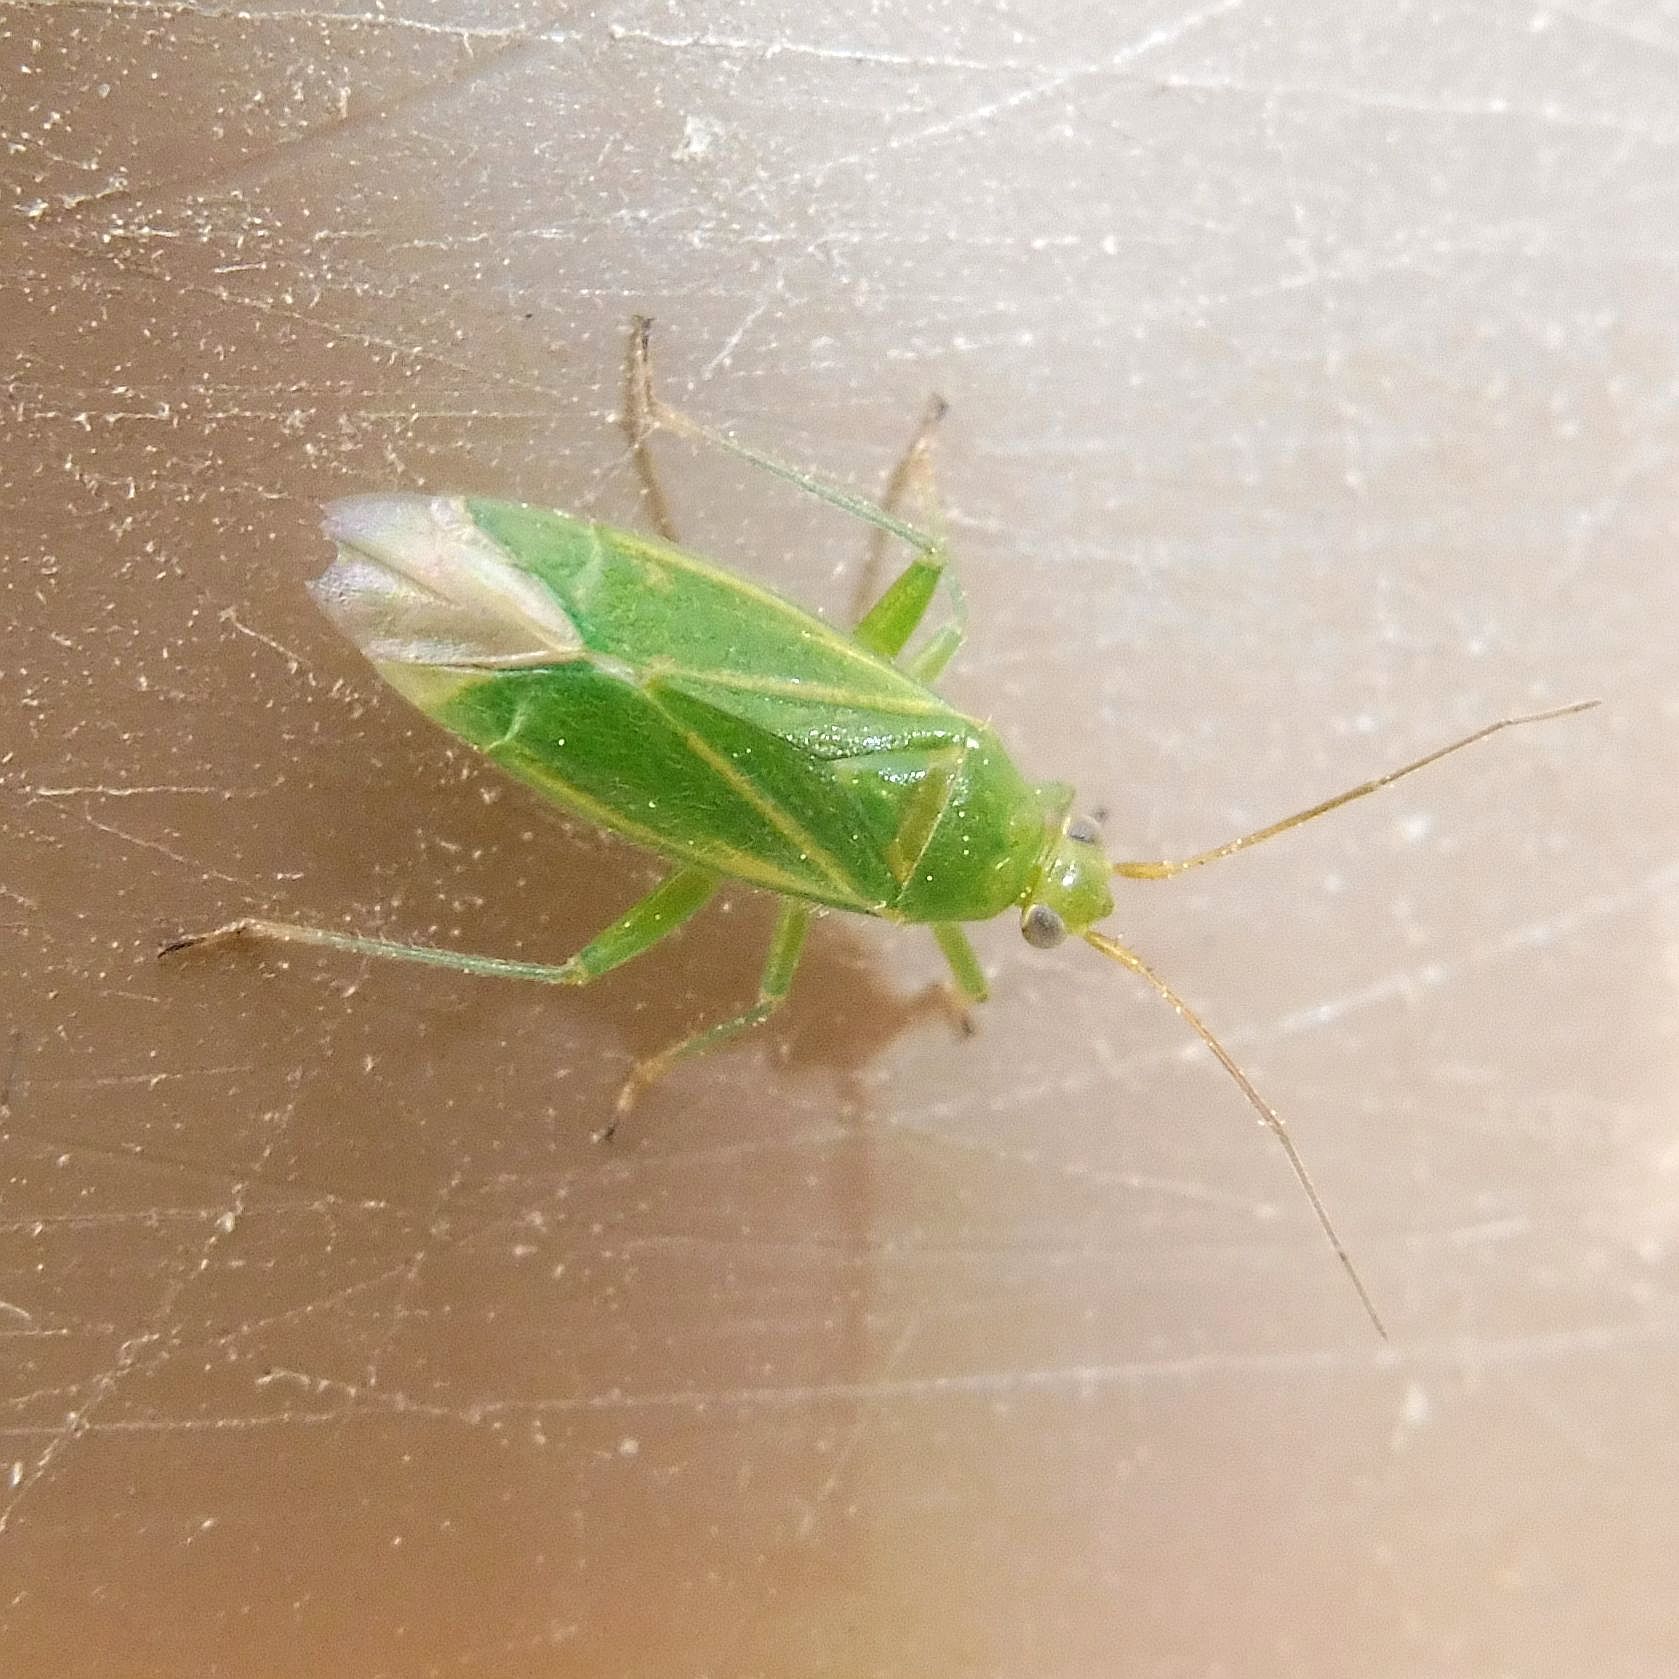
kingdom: Animalia
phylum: Arthropoda
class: Insecta
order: Hemiptera
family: Miridae
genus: Orthotylus
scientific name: Orthotylus marginalis
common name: Dark green apple capsid
